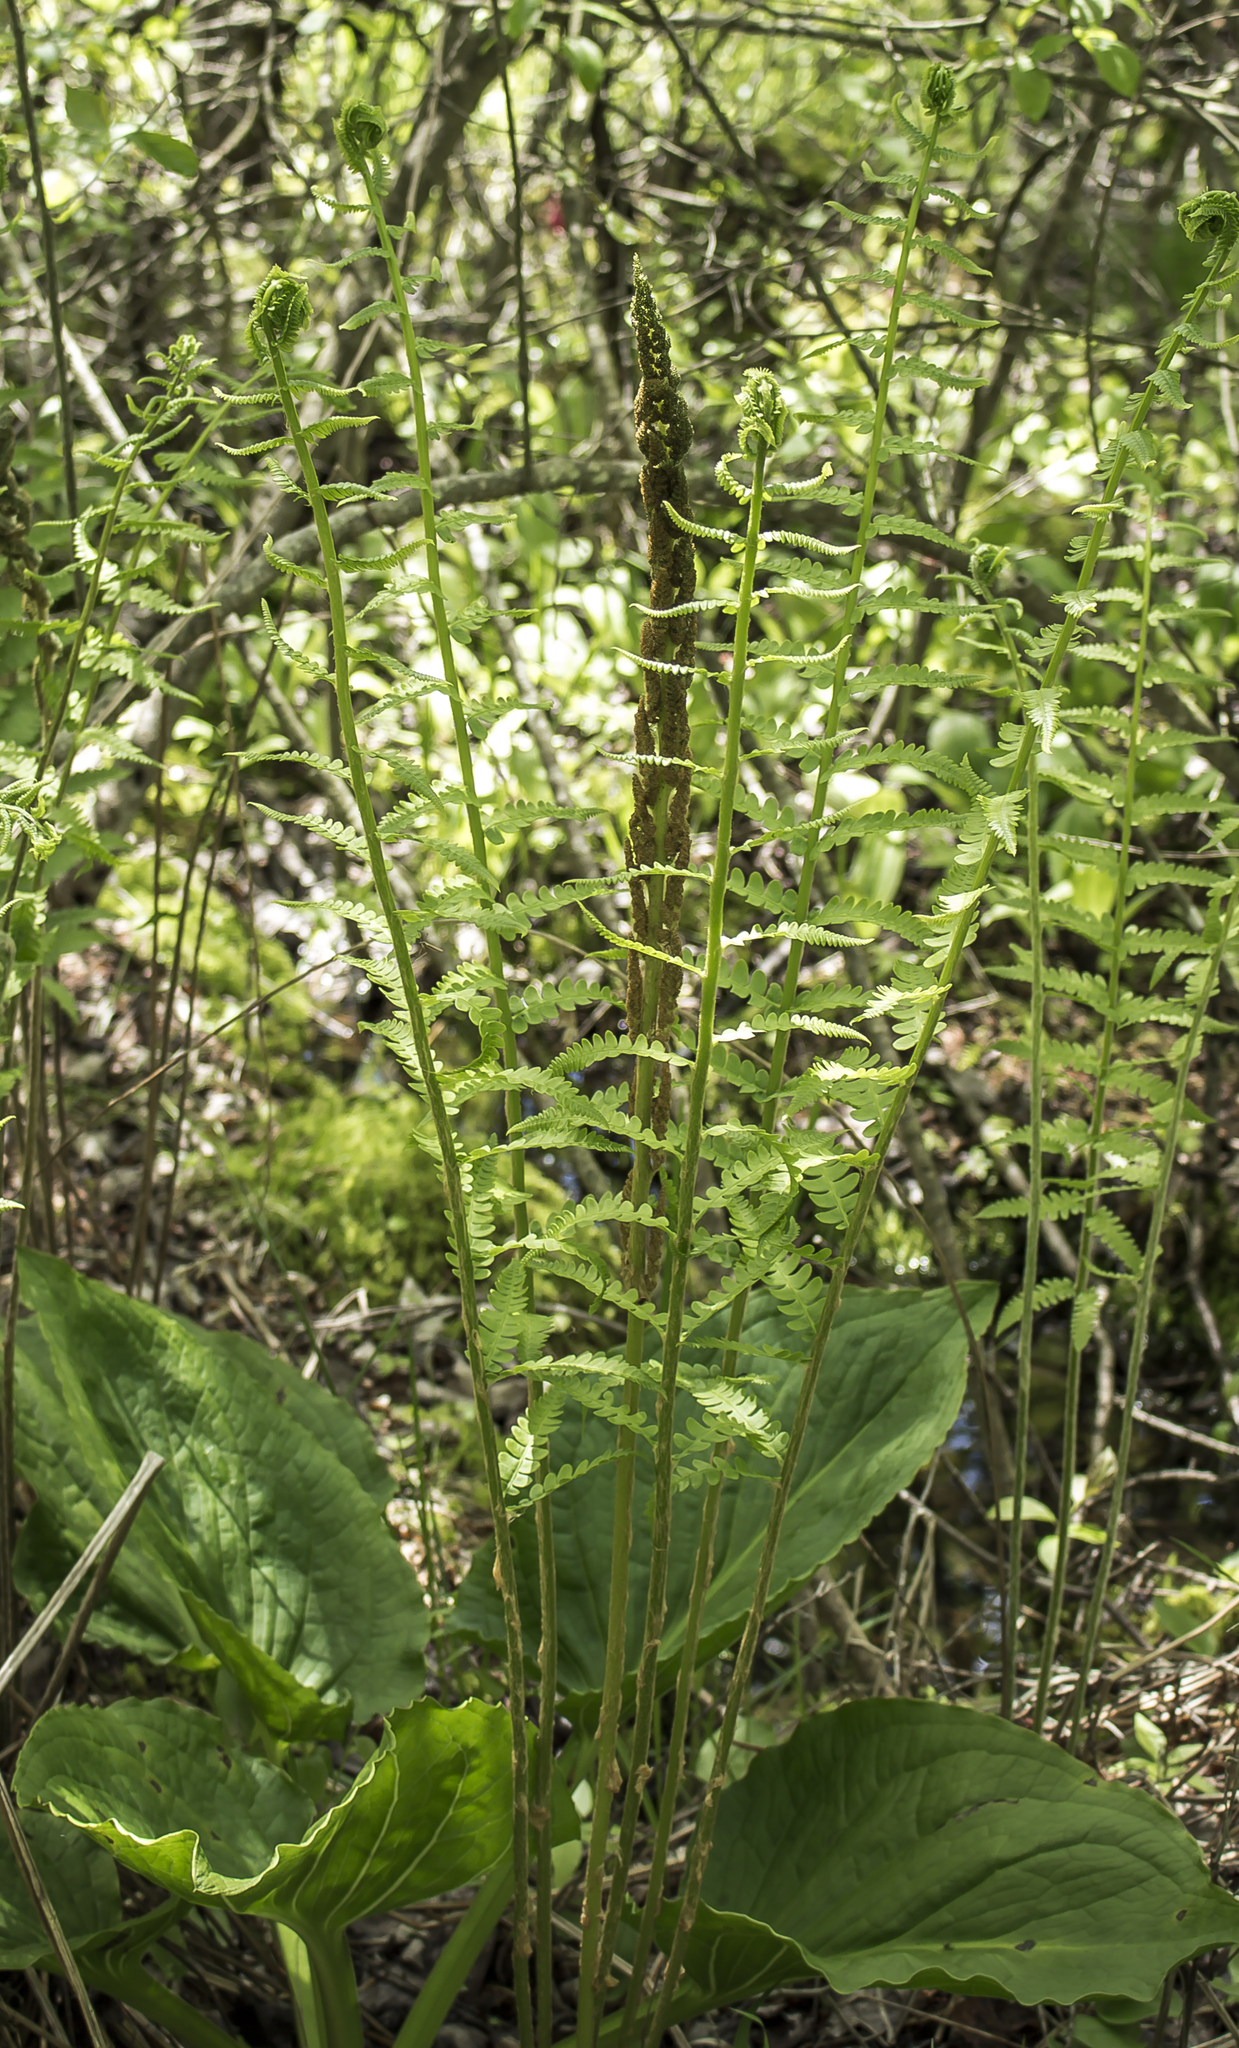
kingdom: Plantae
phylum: Tracheophyta
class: Polypodiopsida
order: Osmundales
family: Osmundaceae
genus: Osmundastrum
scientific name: Osmundastrum cinnamomeum
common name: Cinnamon fern
